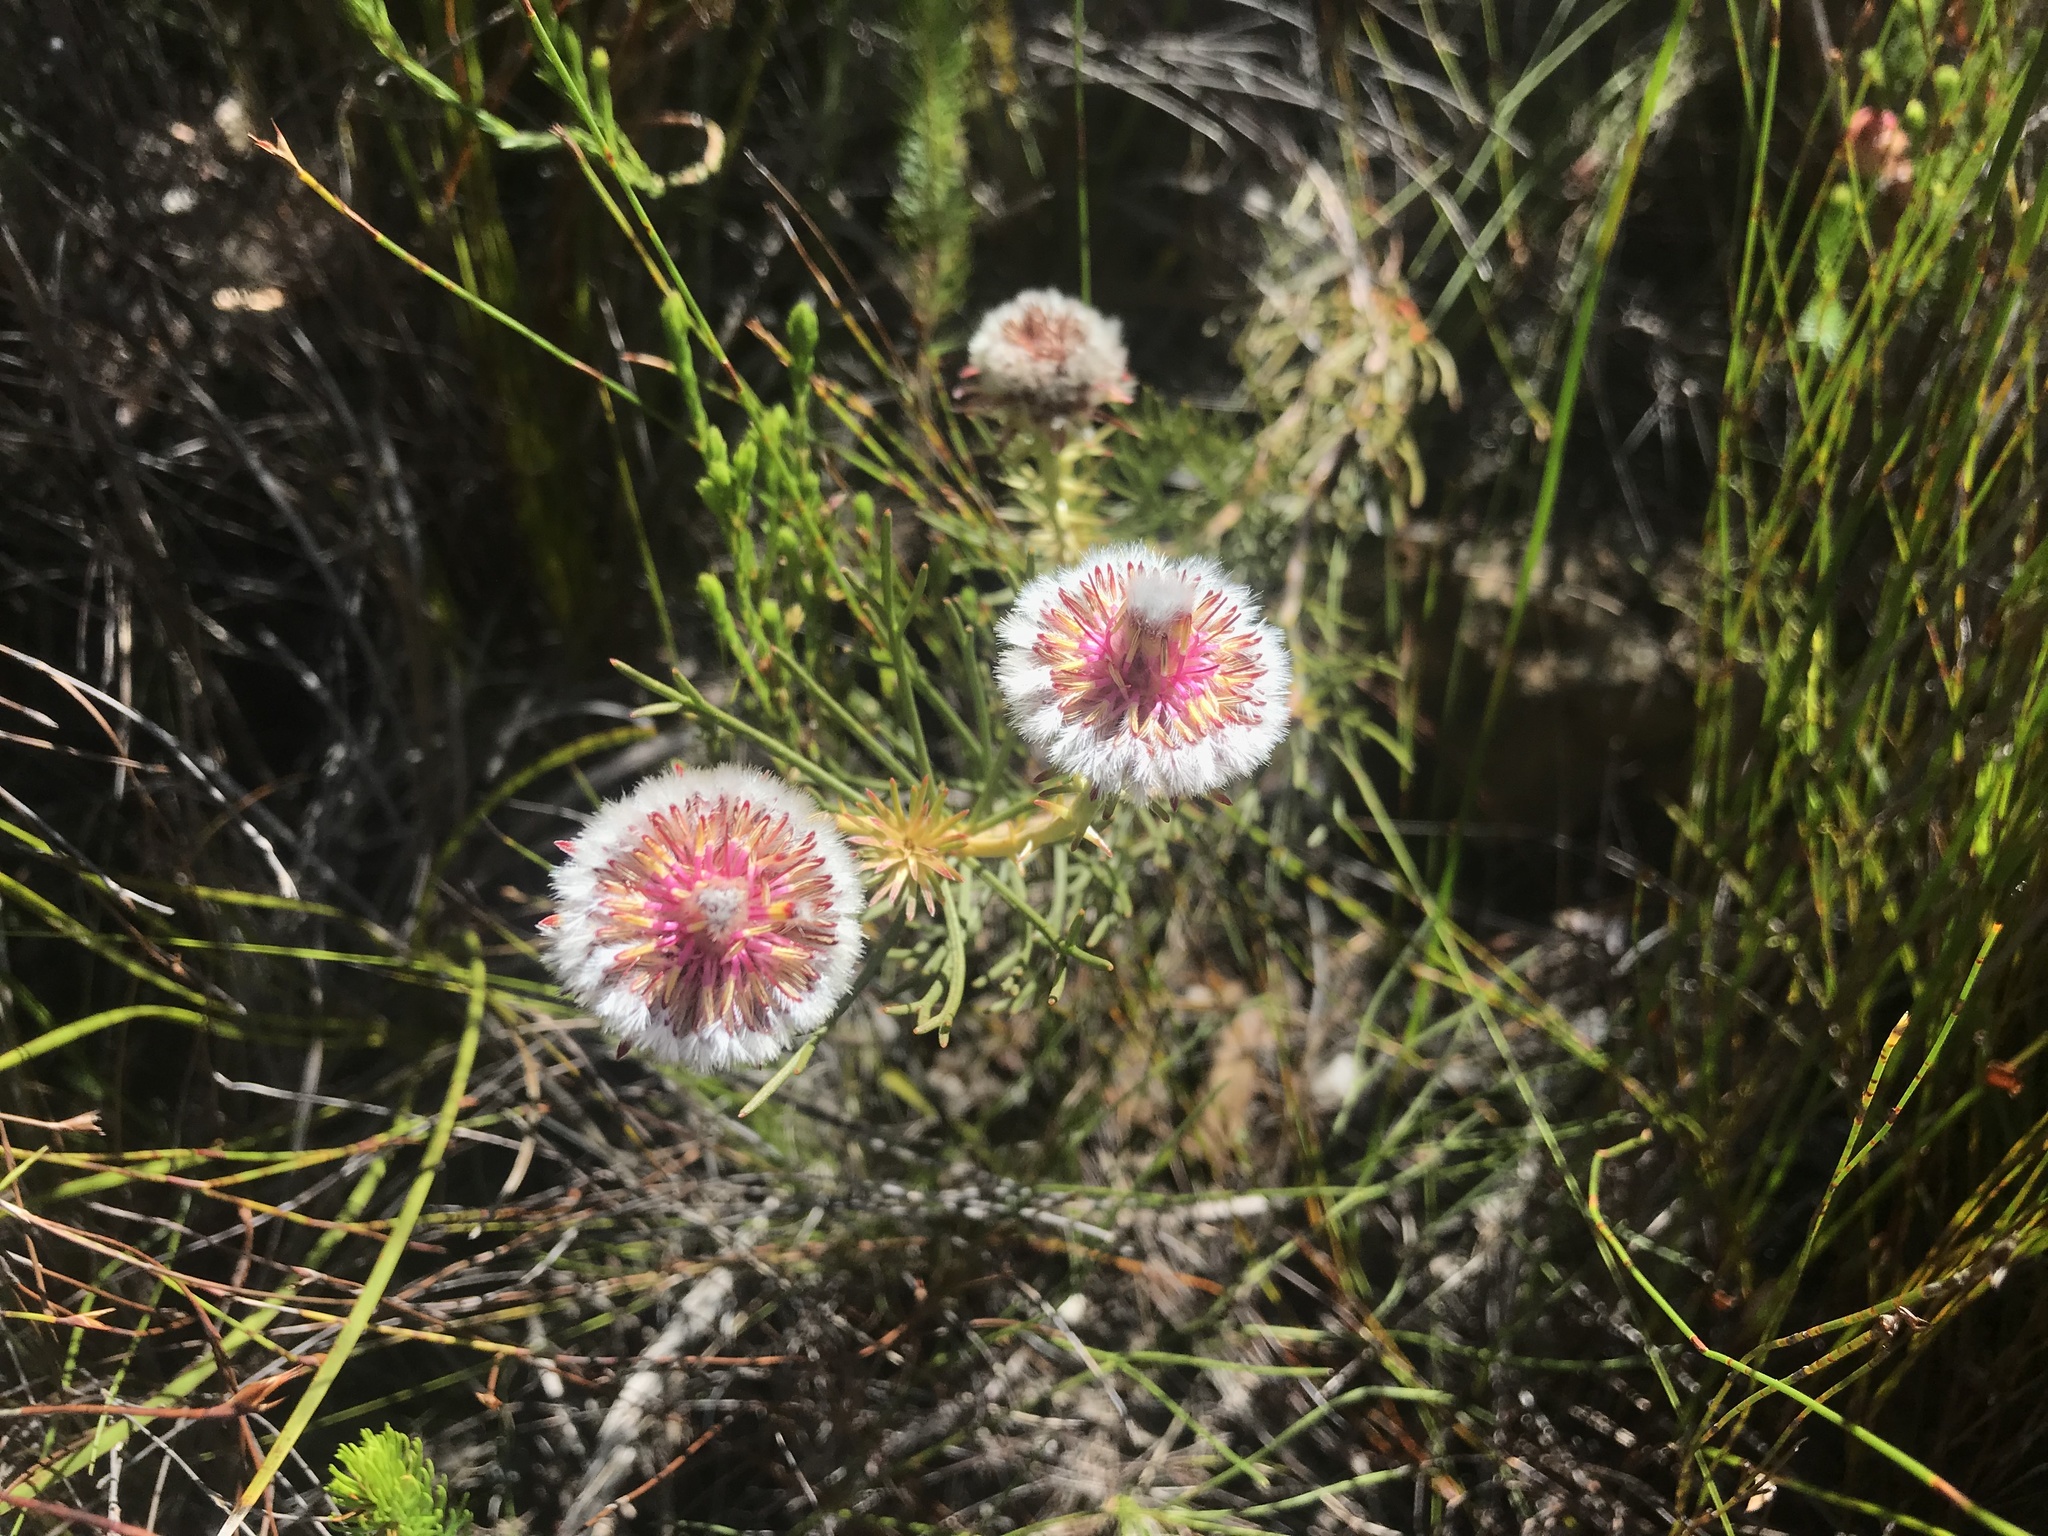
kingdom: Plantae
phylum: Tracheophyta
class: Magnoliopsida
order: Proteales
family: Proteaceae
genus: Serruria
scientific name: Serruria phylicoides
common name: Bearded spiderhead
